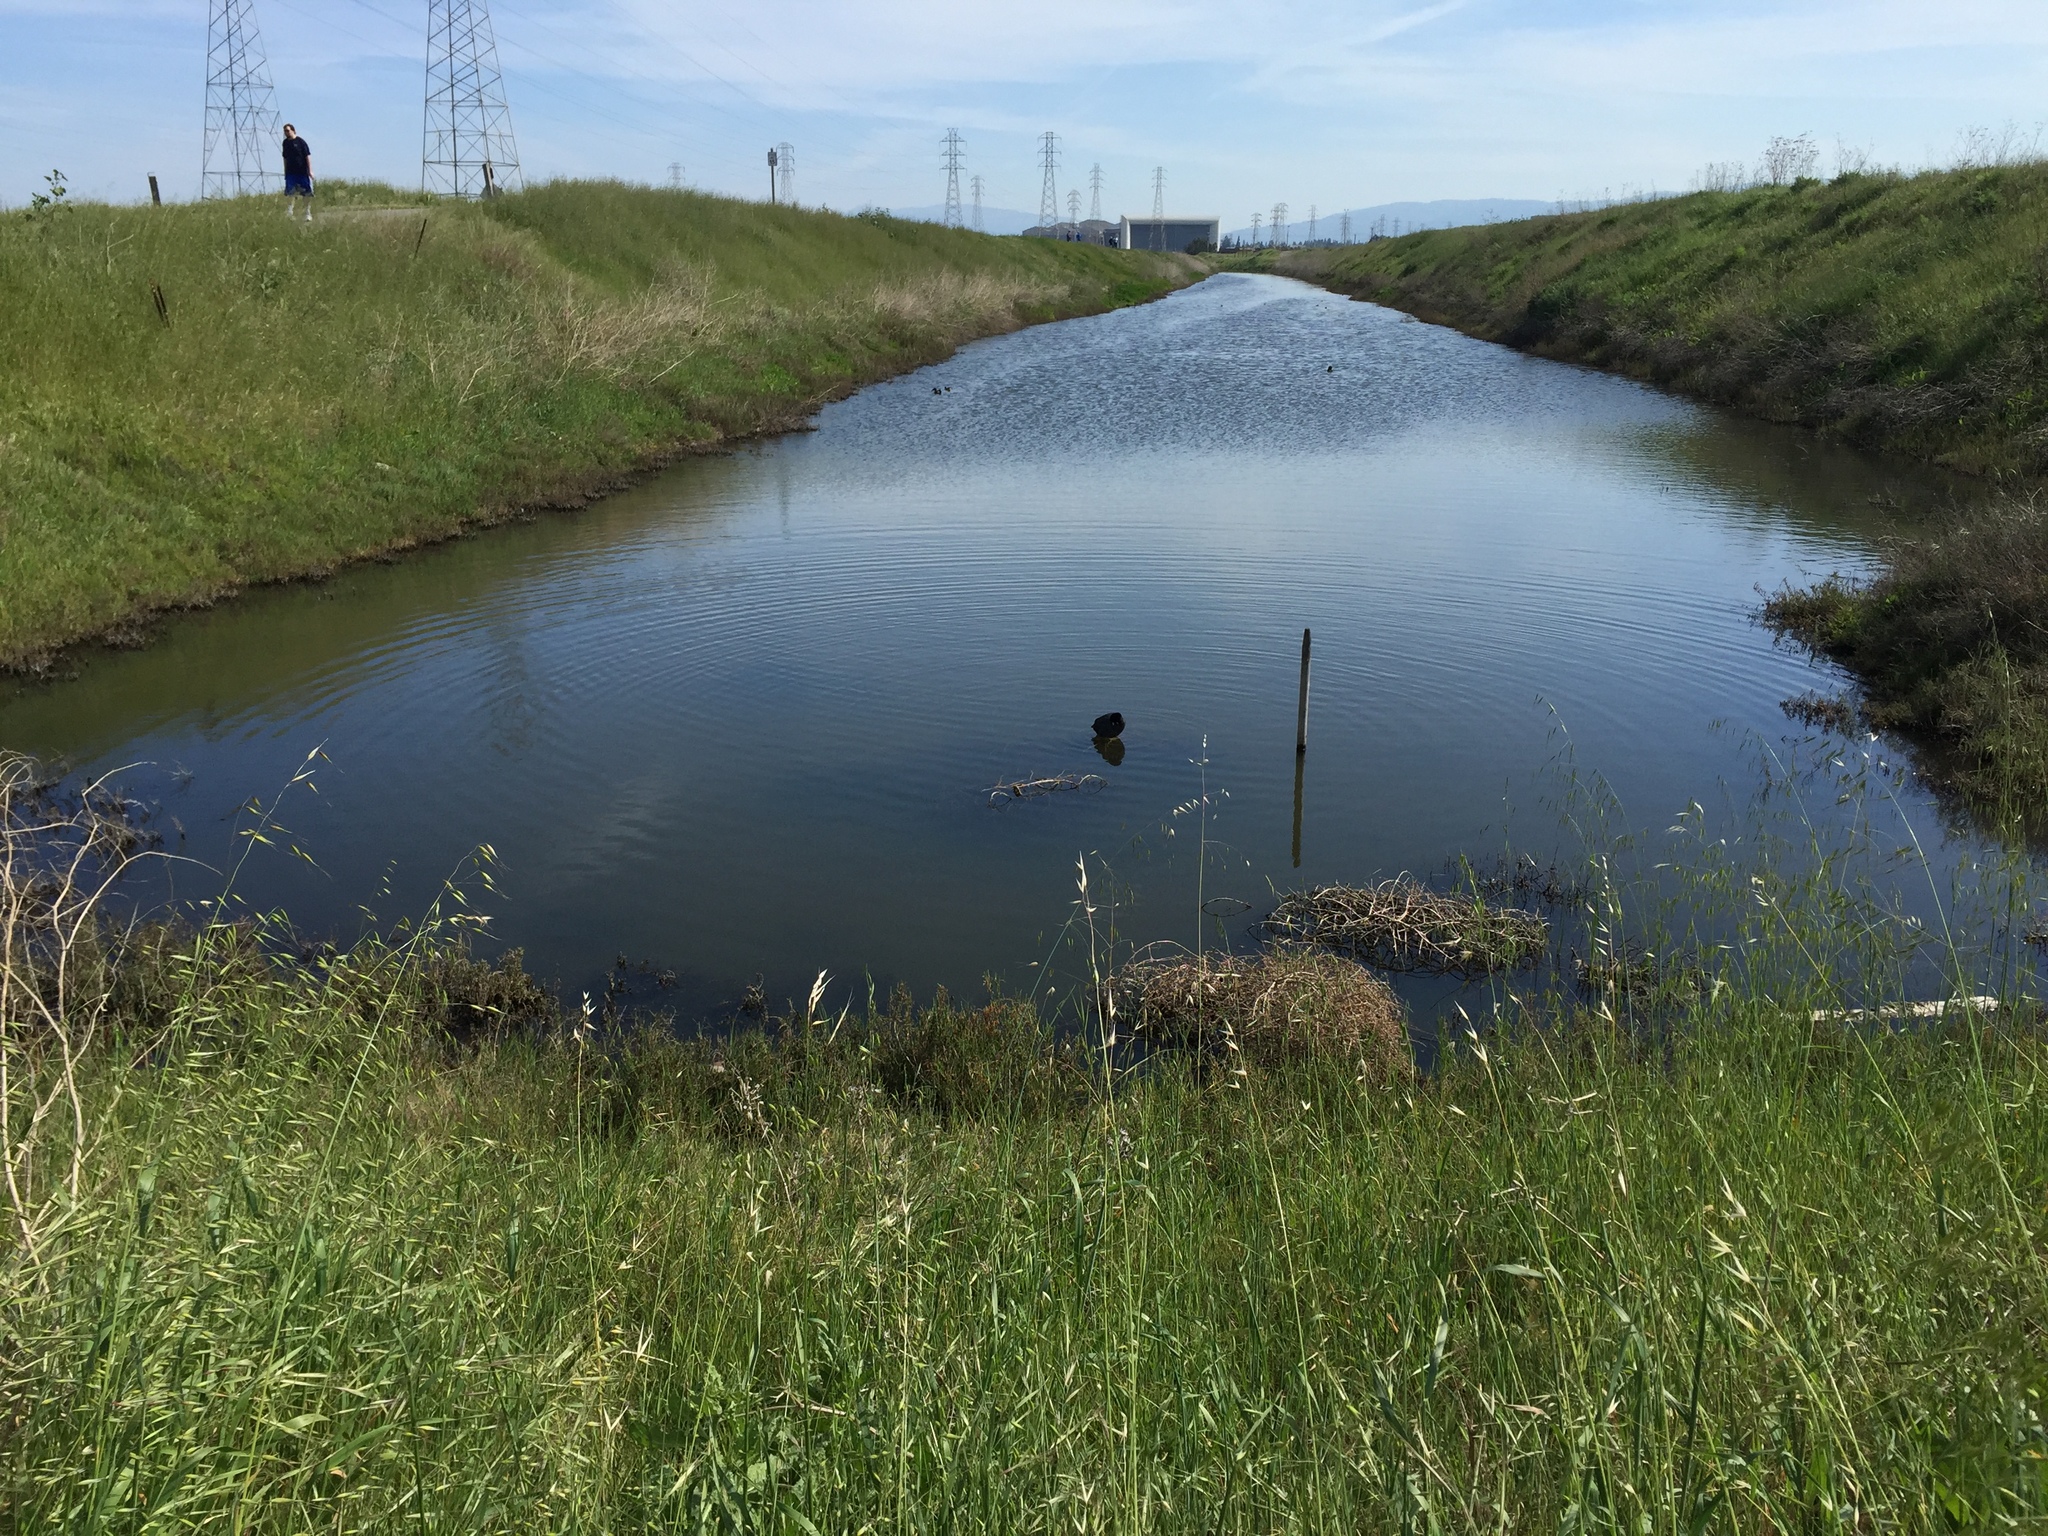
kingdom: Animalia
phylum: Chordata
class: Aves
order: Gruiformes
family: Rallidae
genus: Fulica
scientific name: Fulica americana
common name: American coot
